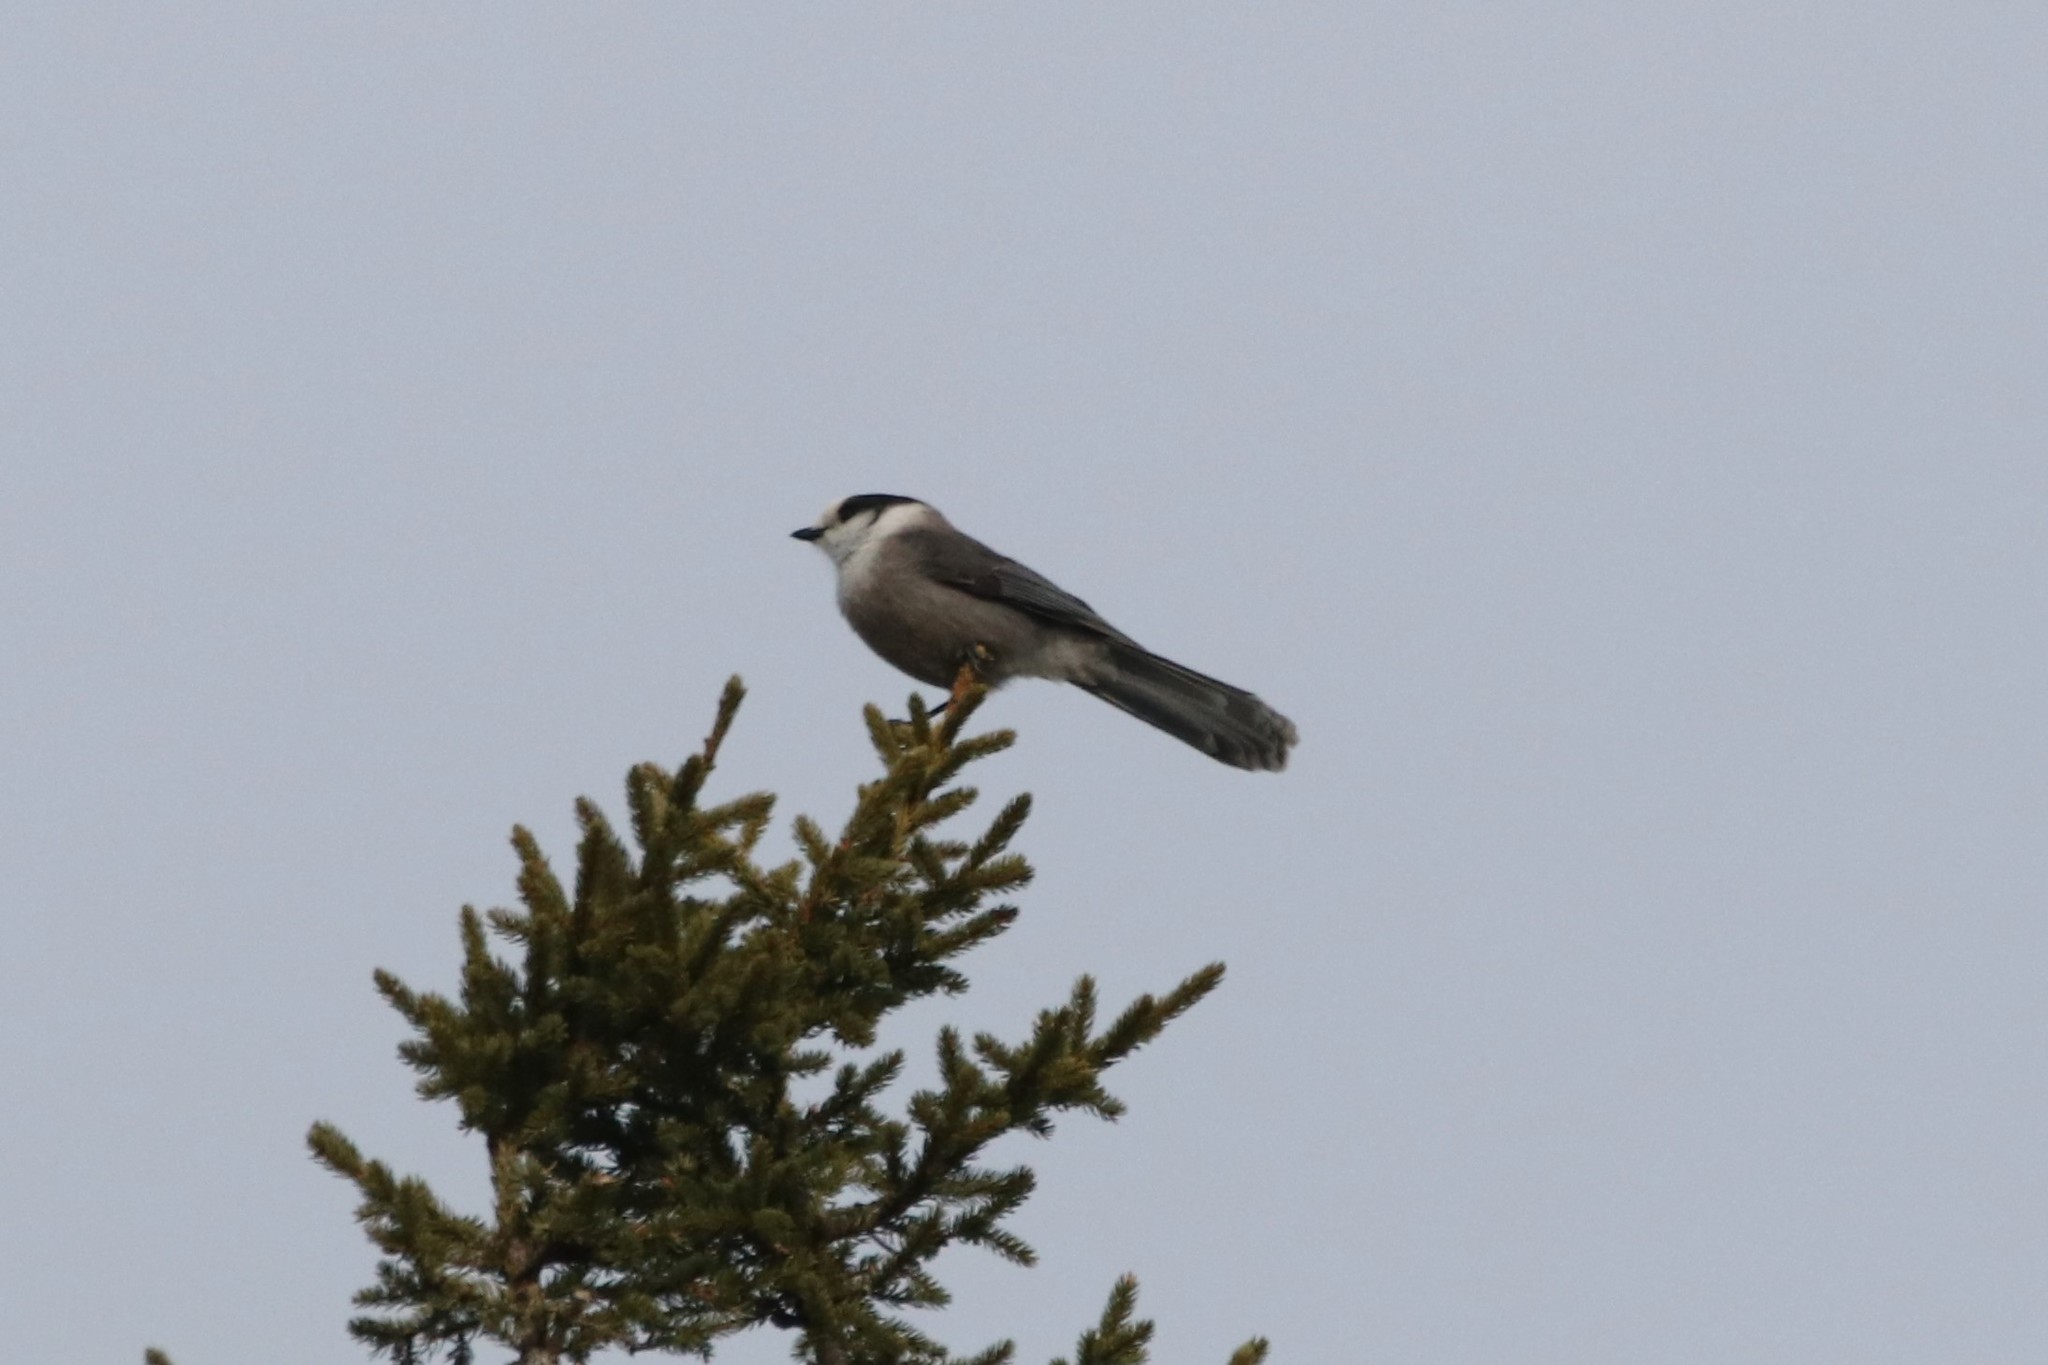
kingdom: Animalia
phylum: Chordata
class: Aves
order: Passeriformes
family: Corvidae
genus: Perisoreus
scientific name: Perisoreus canadensis
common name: Gray jay
